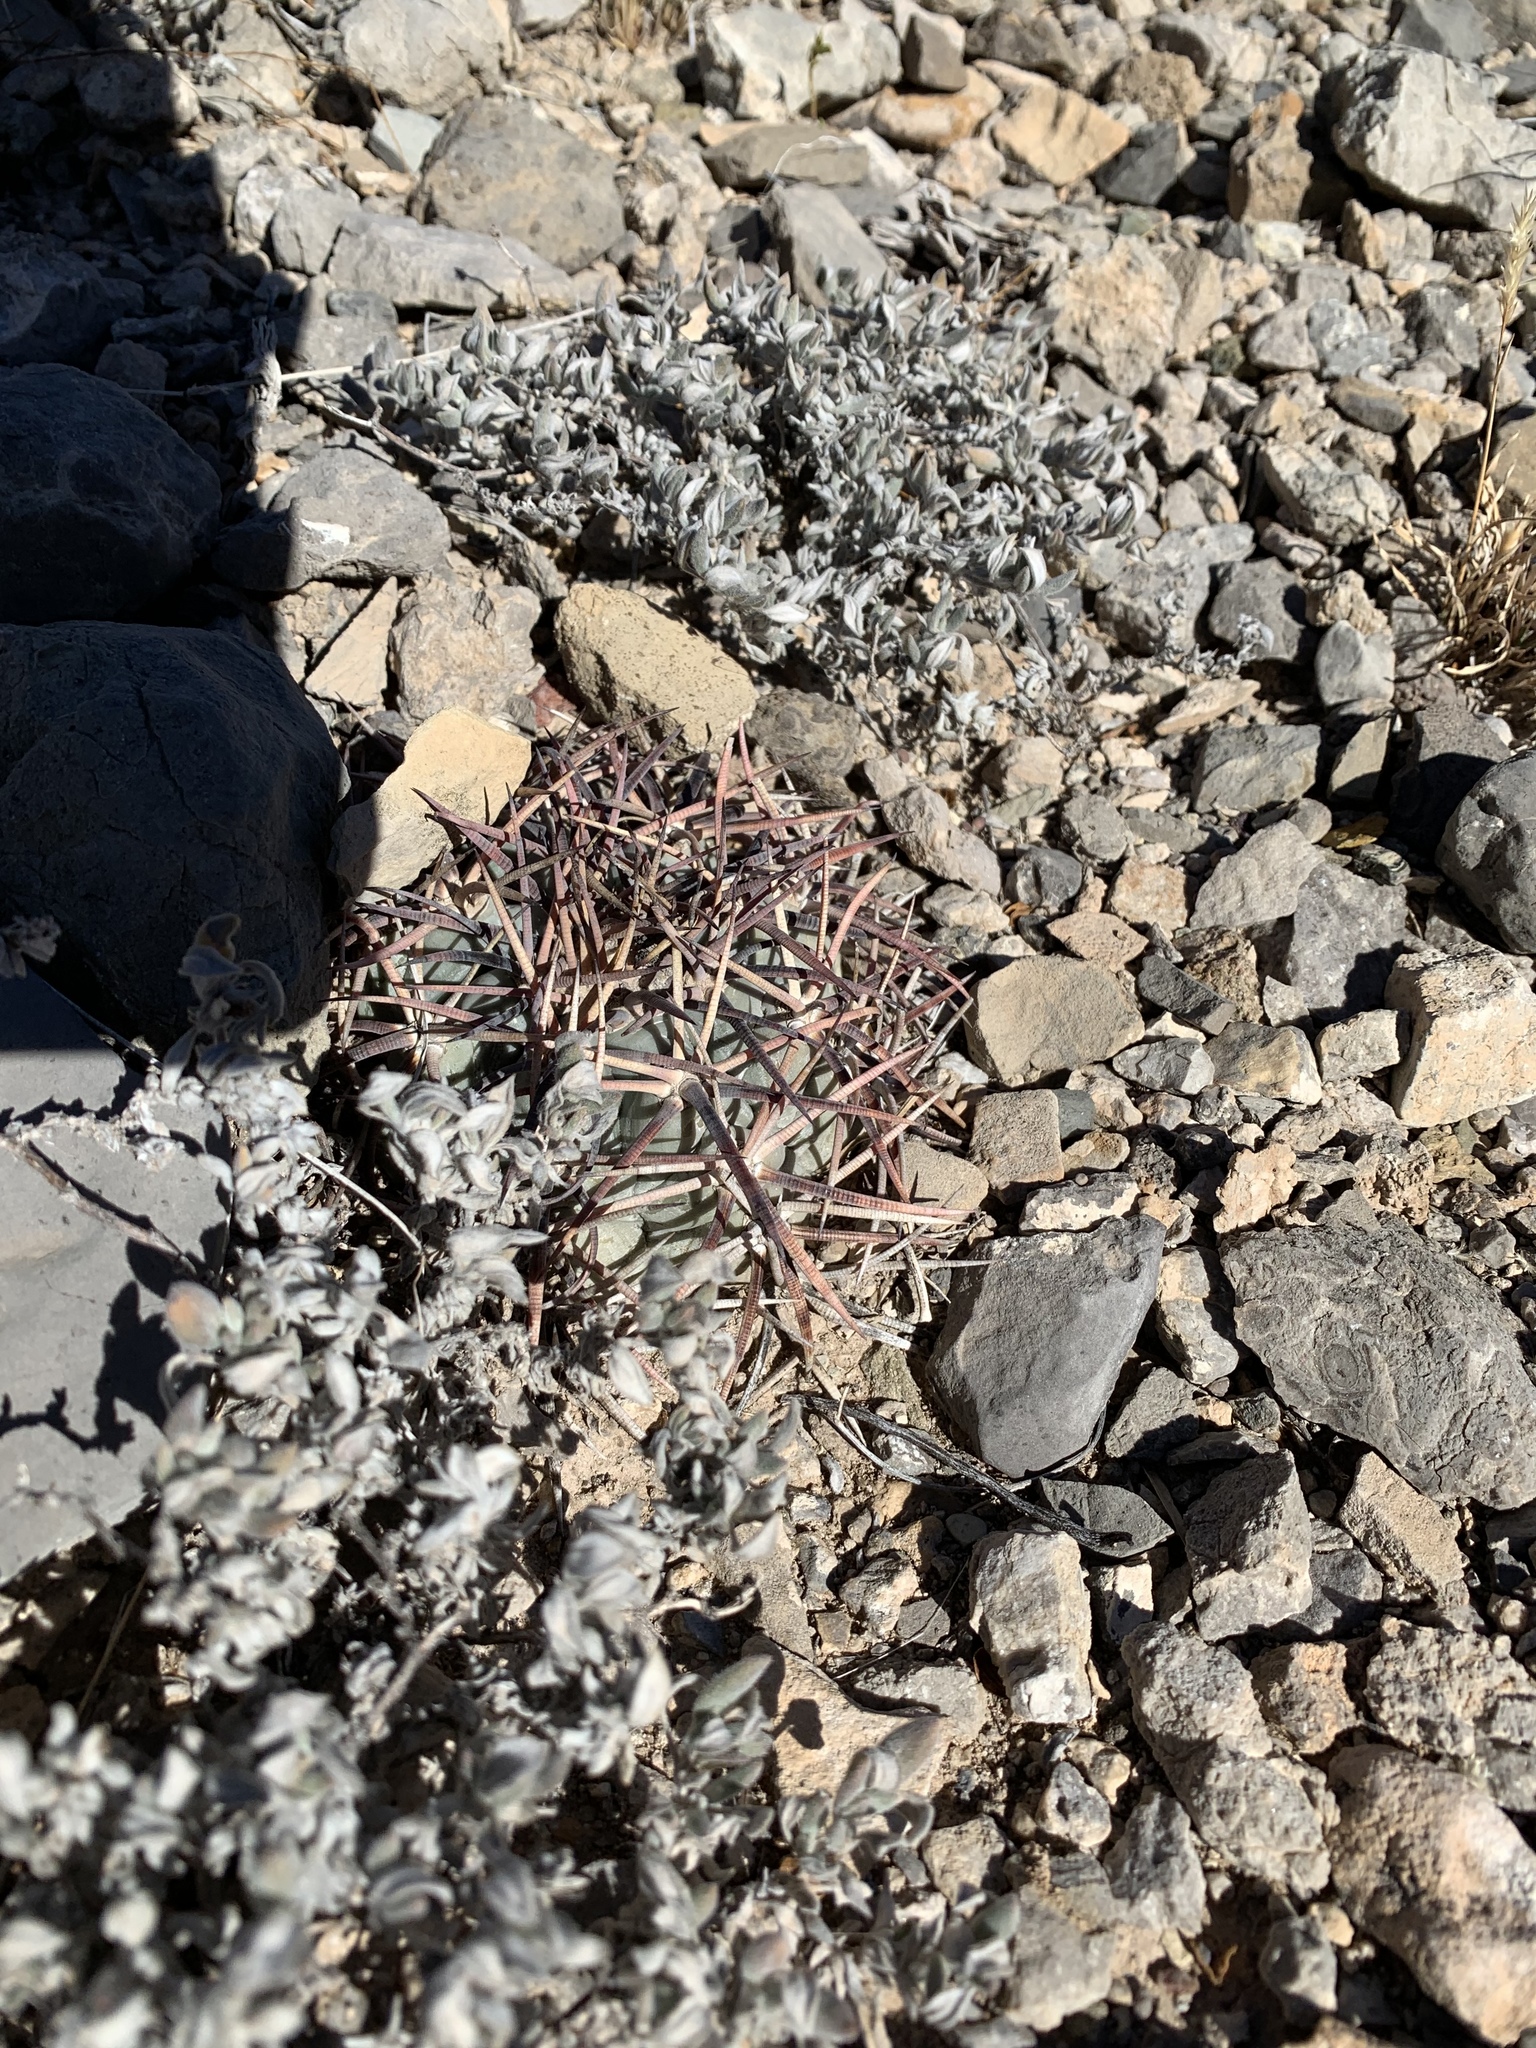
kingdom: Plantae
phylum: Tracheophyta
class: Magnoliopsida
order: Caryophyllales
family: Cactaceae
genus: Echinocactus
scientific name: Echinocactus horizonthalonius
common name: Devilshead
